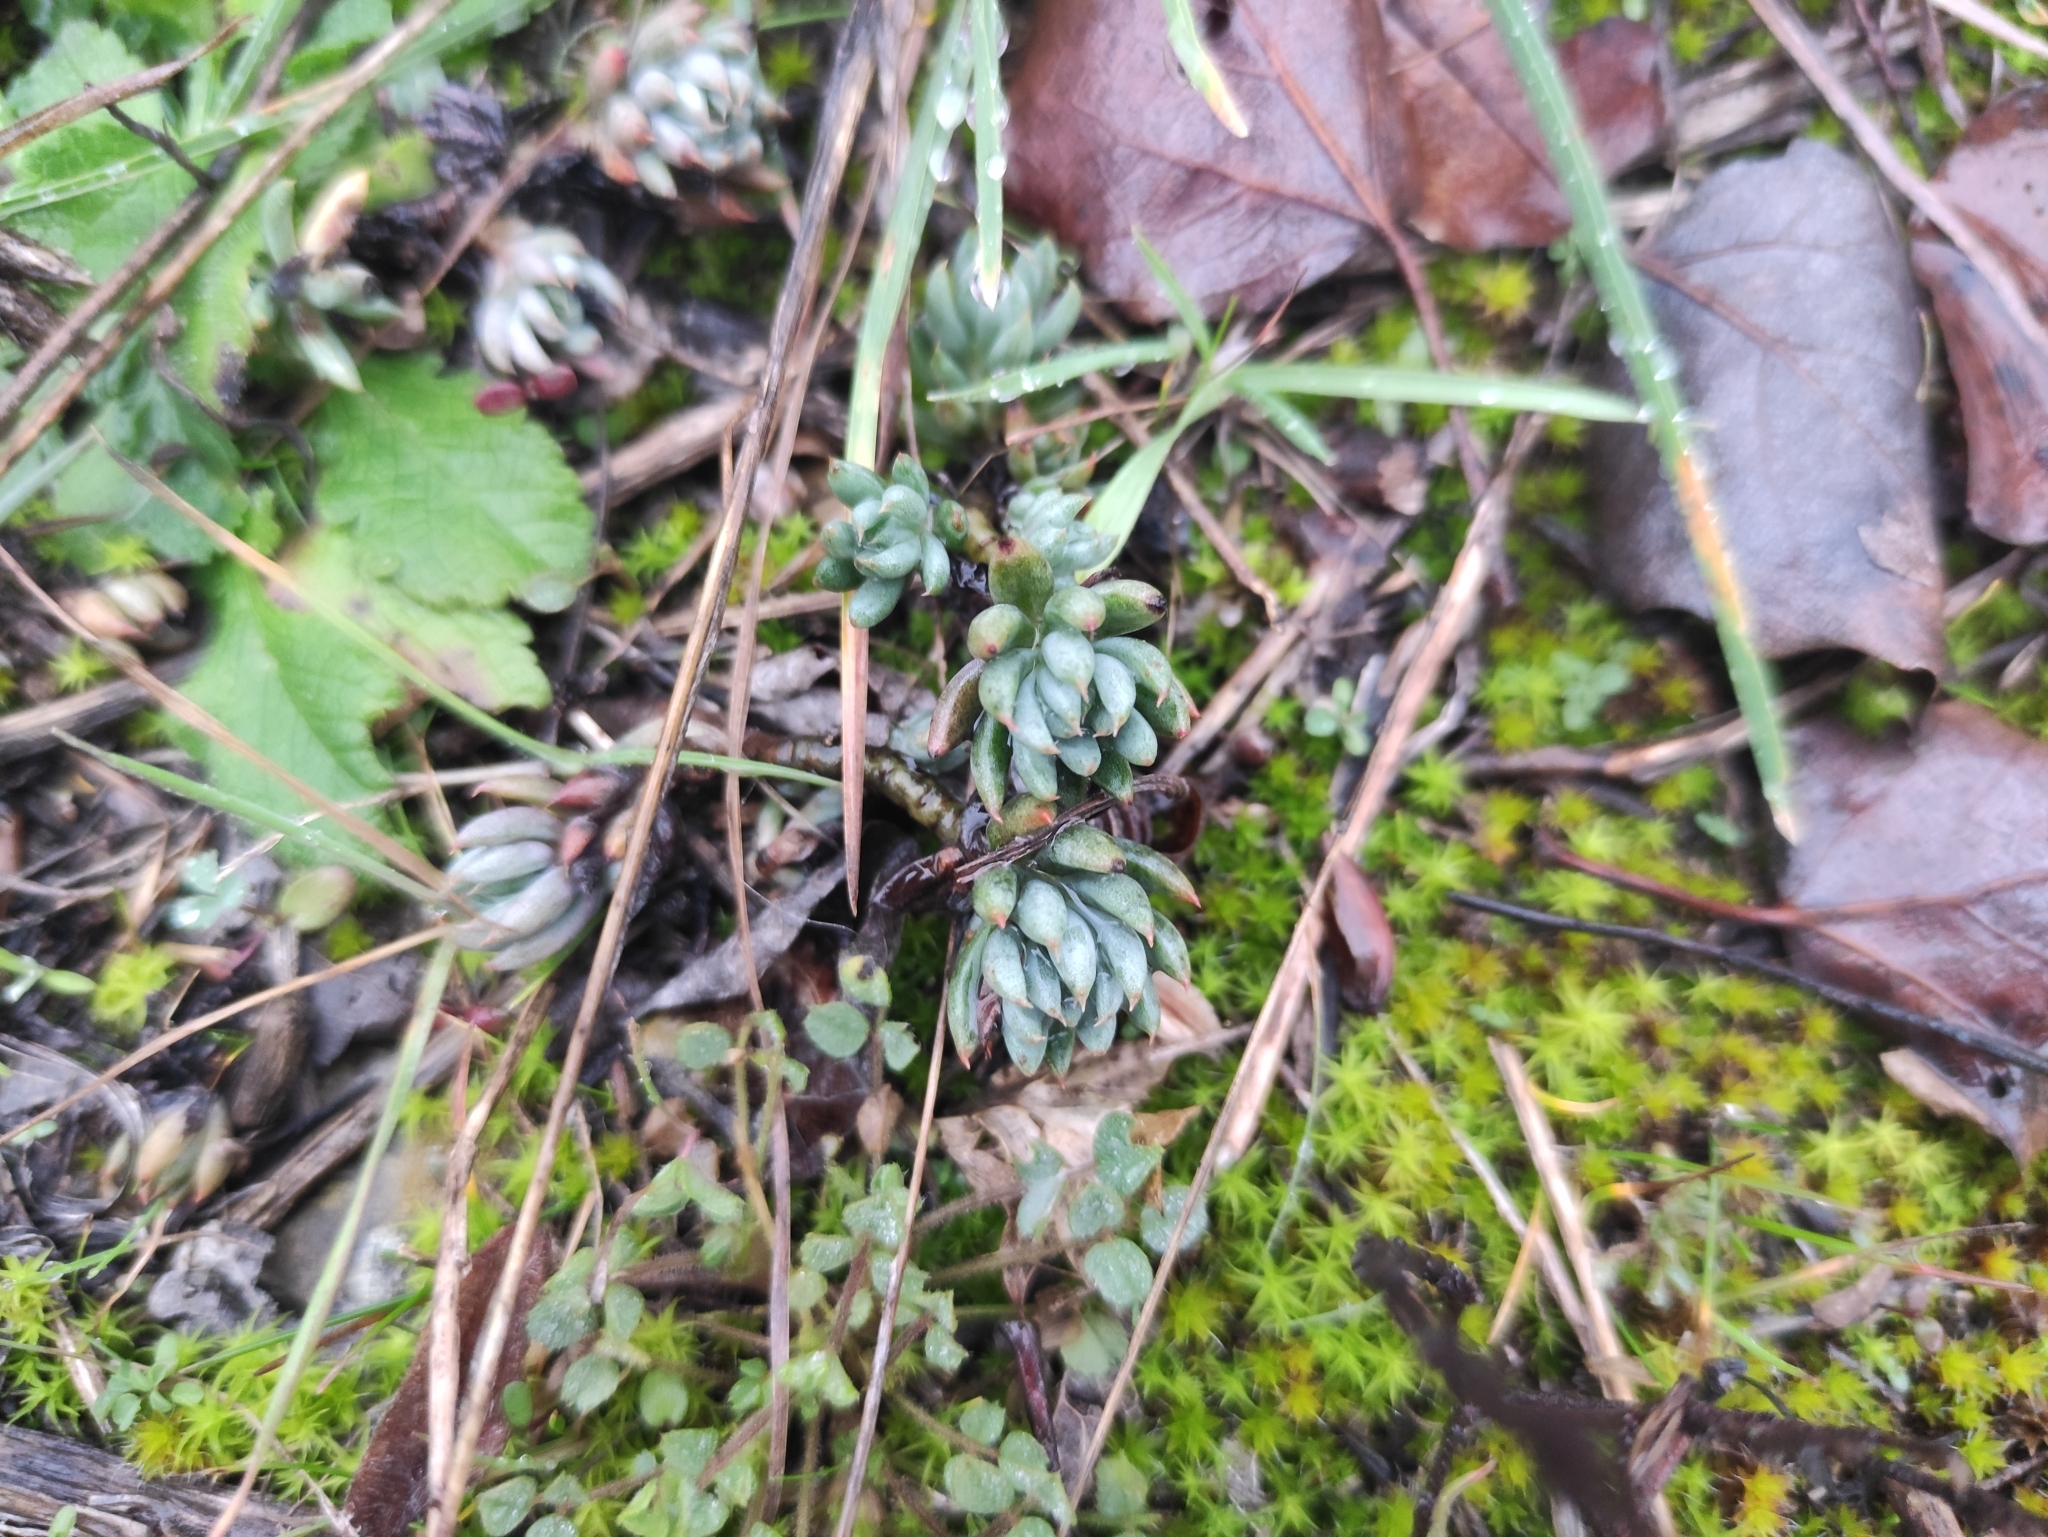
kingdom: Plantae
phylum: Tracheophyta
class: Magnoliopsida
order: Saxifragales
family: Crassulaceae
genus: Petrosedum
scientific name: Petrosedum sediforme
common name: Pale stonecrop
